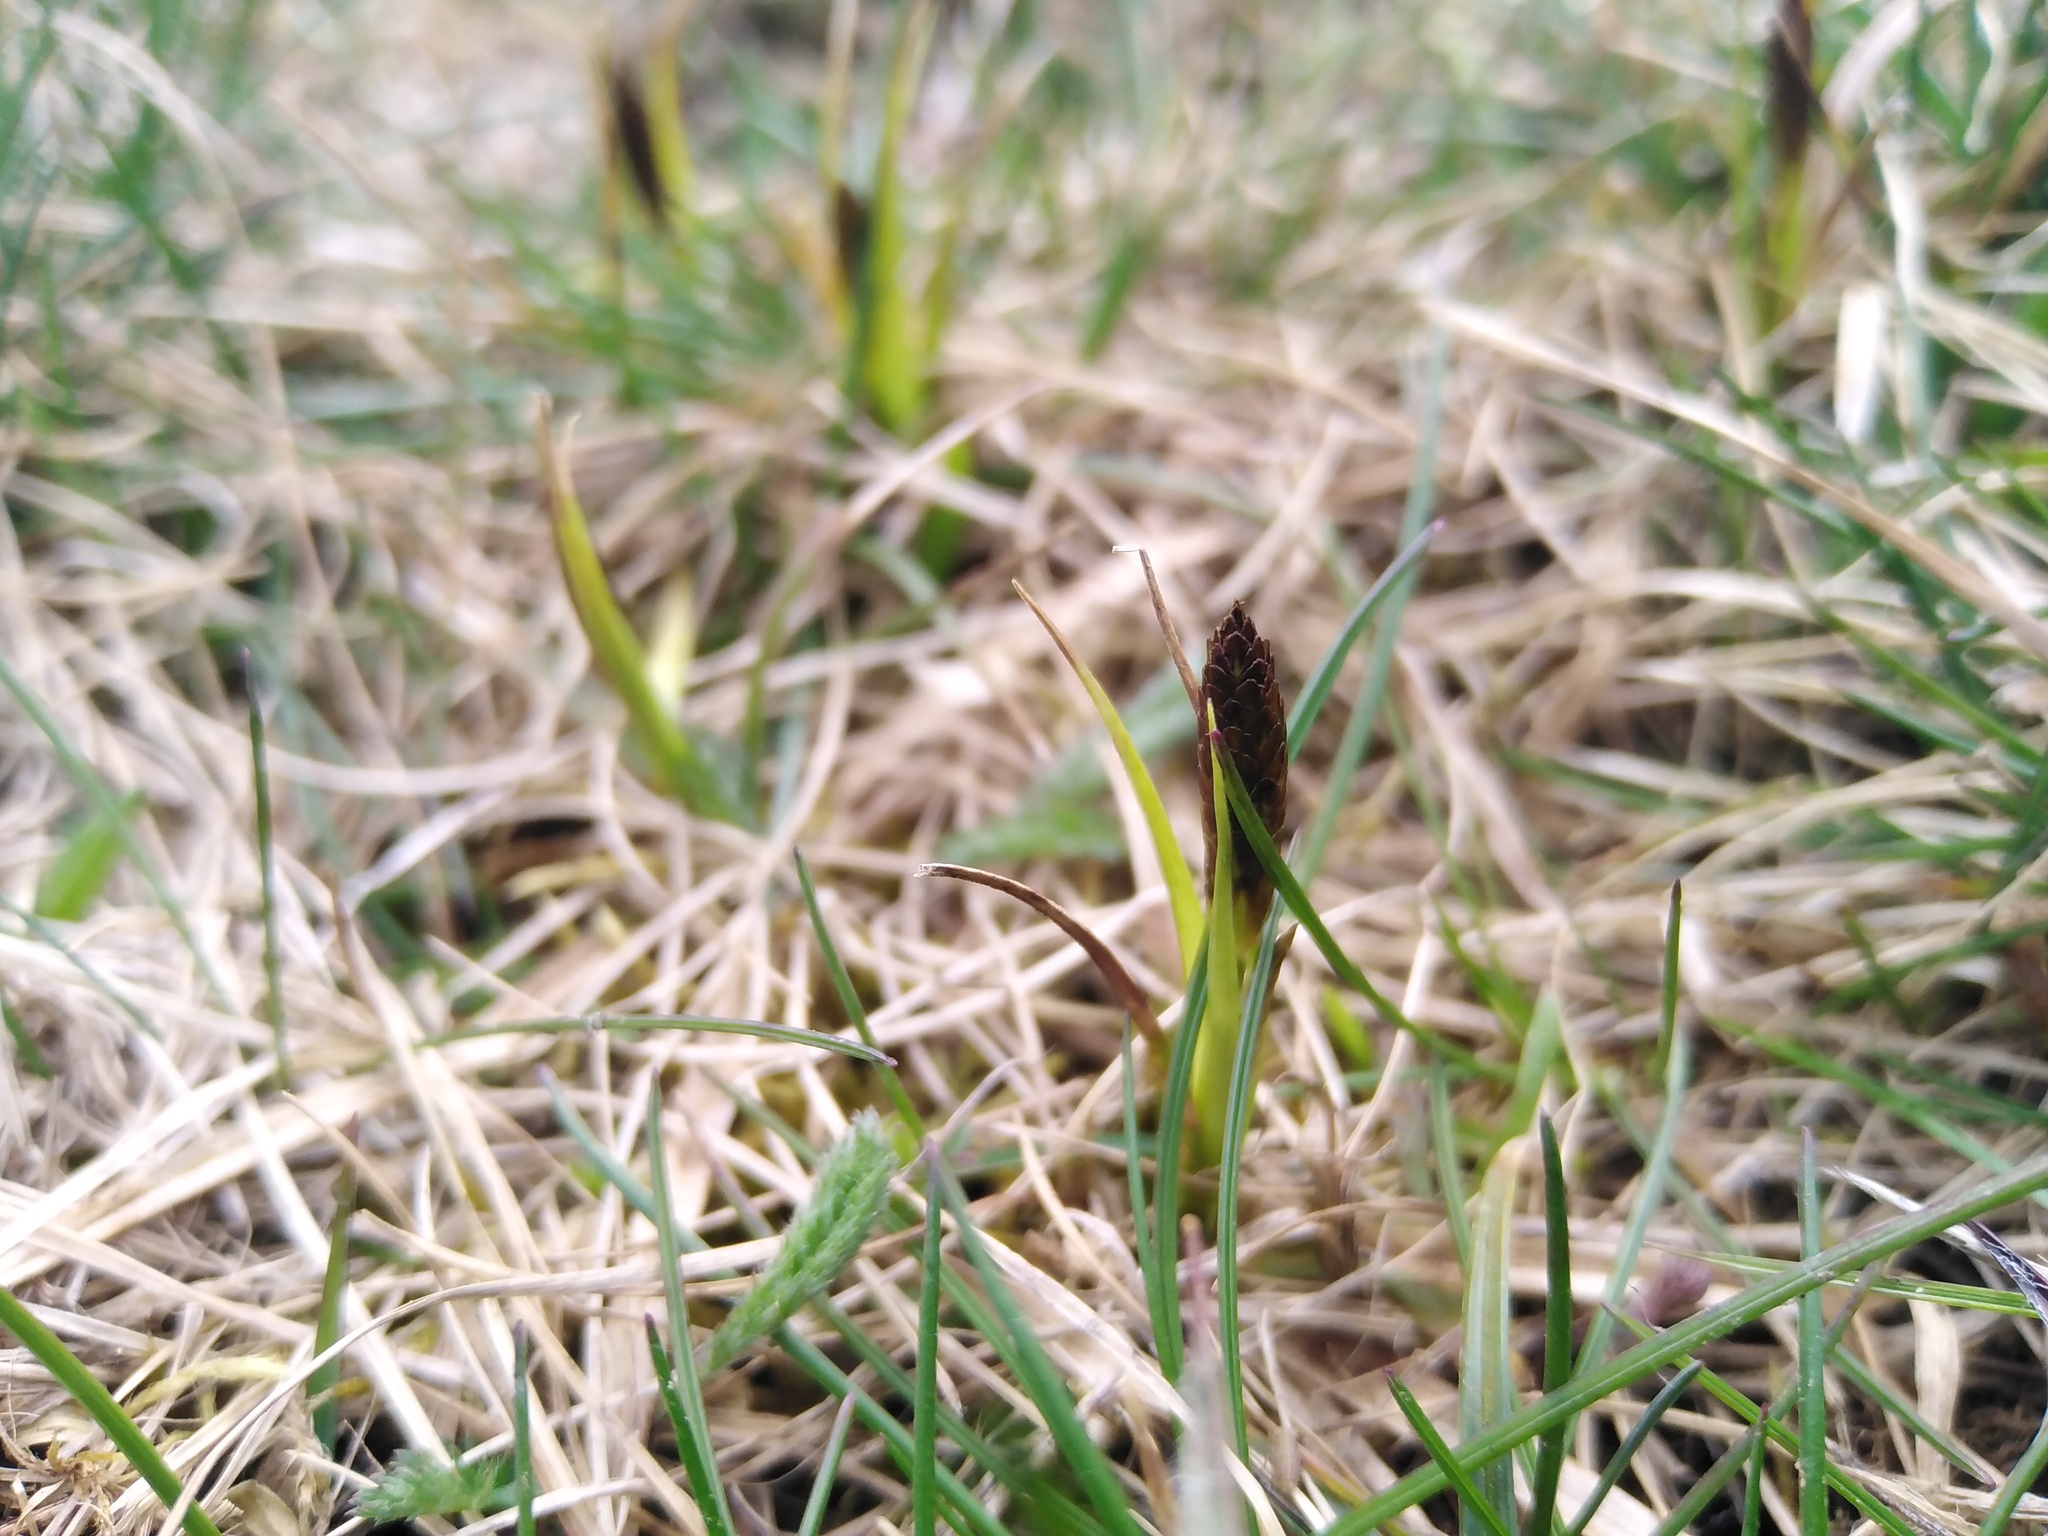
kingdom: Plantae
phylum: Tracheophyta
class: Liliopsida
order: Poales
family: Cyperaceae
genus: Carex
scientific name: Carex caryophyllea
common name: Spring sedge
